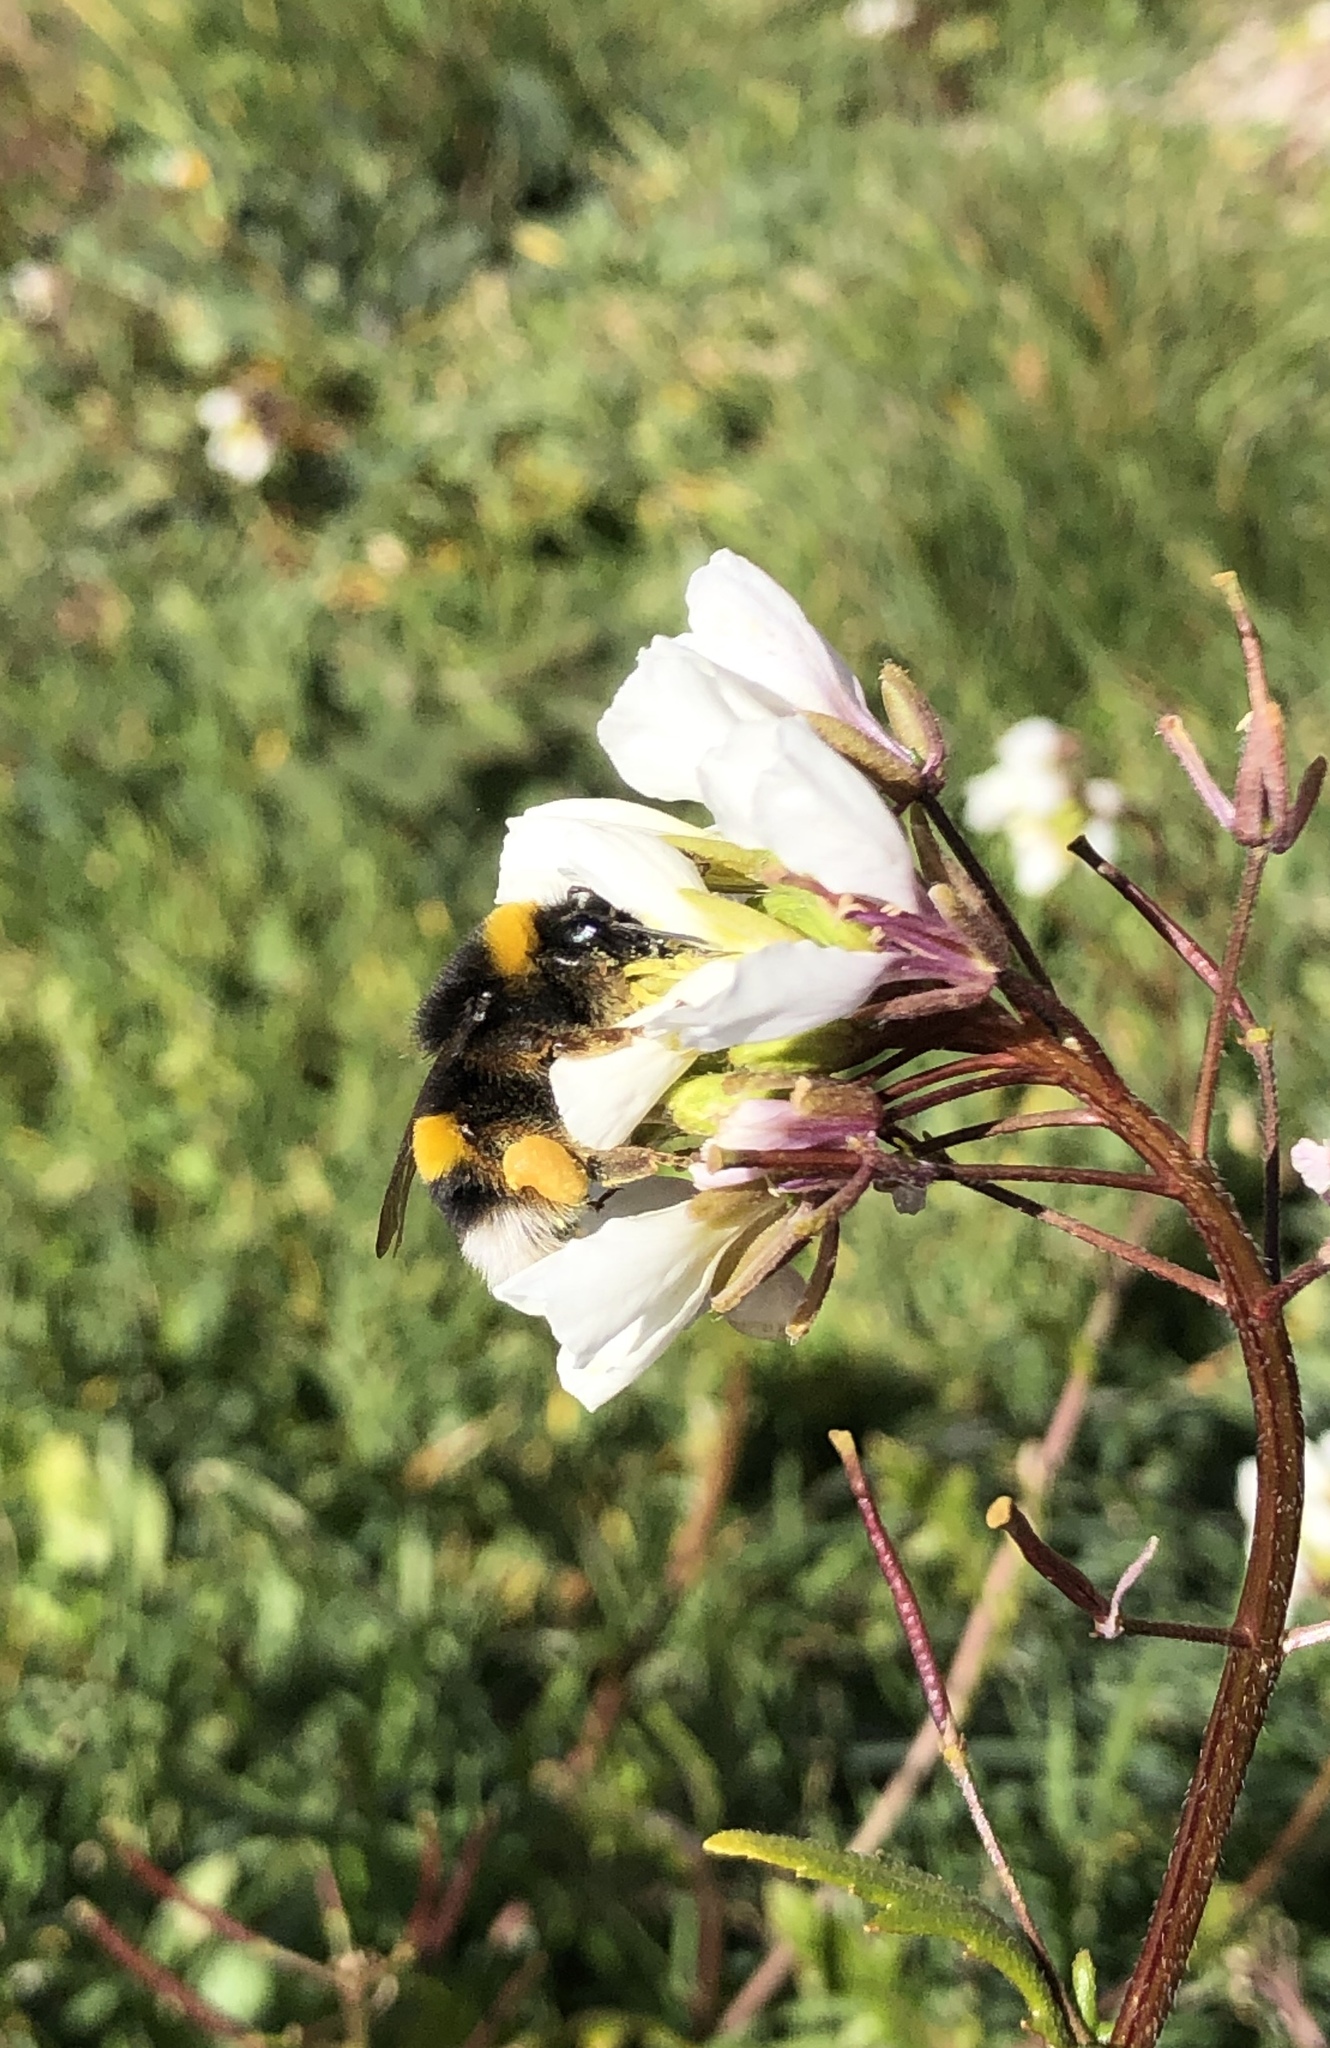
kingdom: Animalia
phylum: Arthropoda
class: Insecta
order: Hymenoptera
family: Apidae
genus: Bombus
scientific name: Bombus terrestris
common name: Buff-tailed bumblebee
